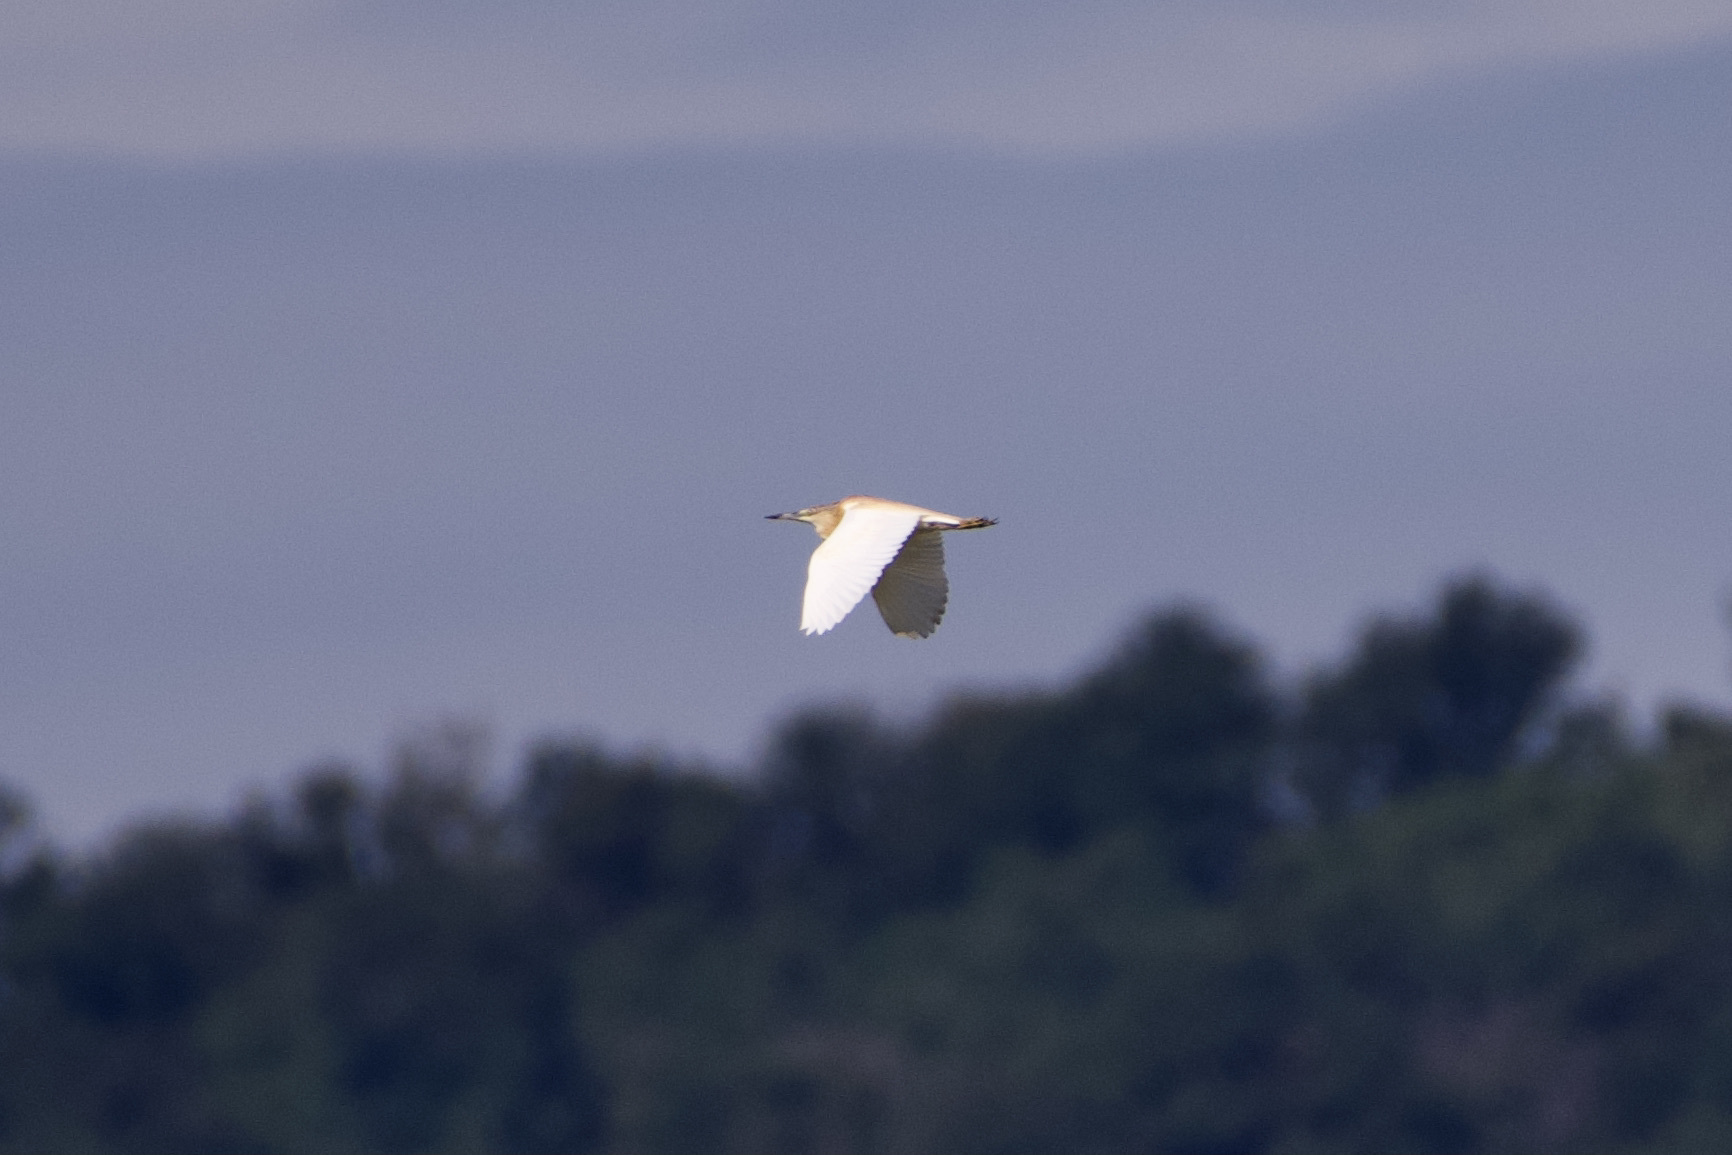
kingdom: Animalia
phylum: Chordata
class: Aves
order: Pelecaniformes
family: Ardeidae
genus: Ardeola
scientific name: Ardeola ralloides
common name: Squacco heron
